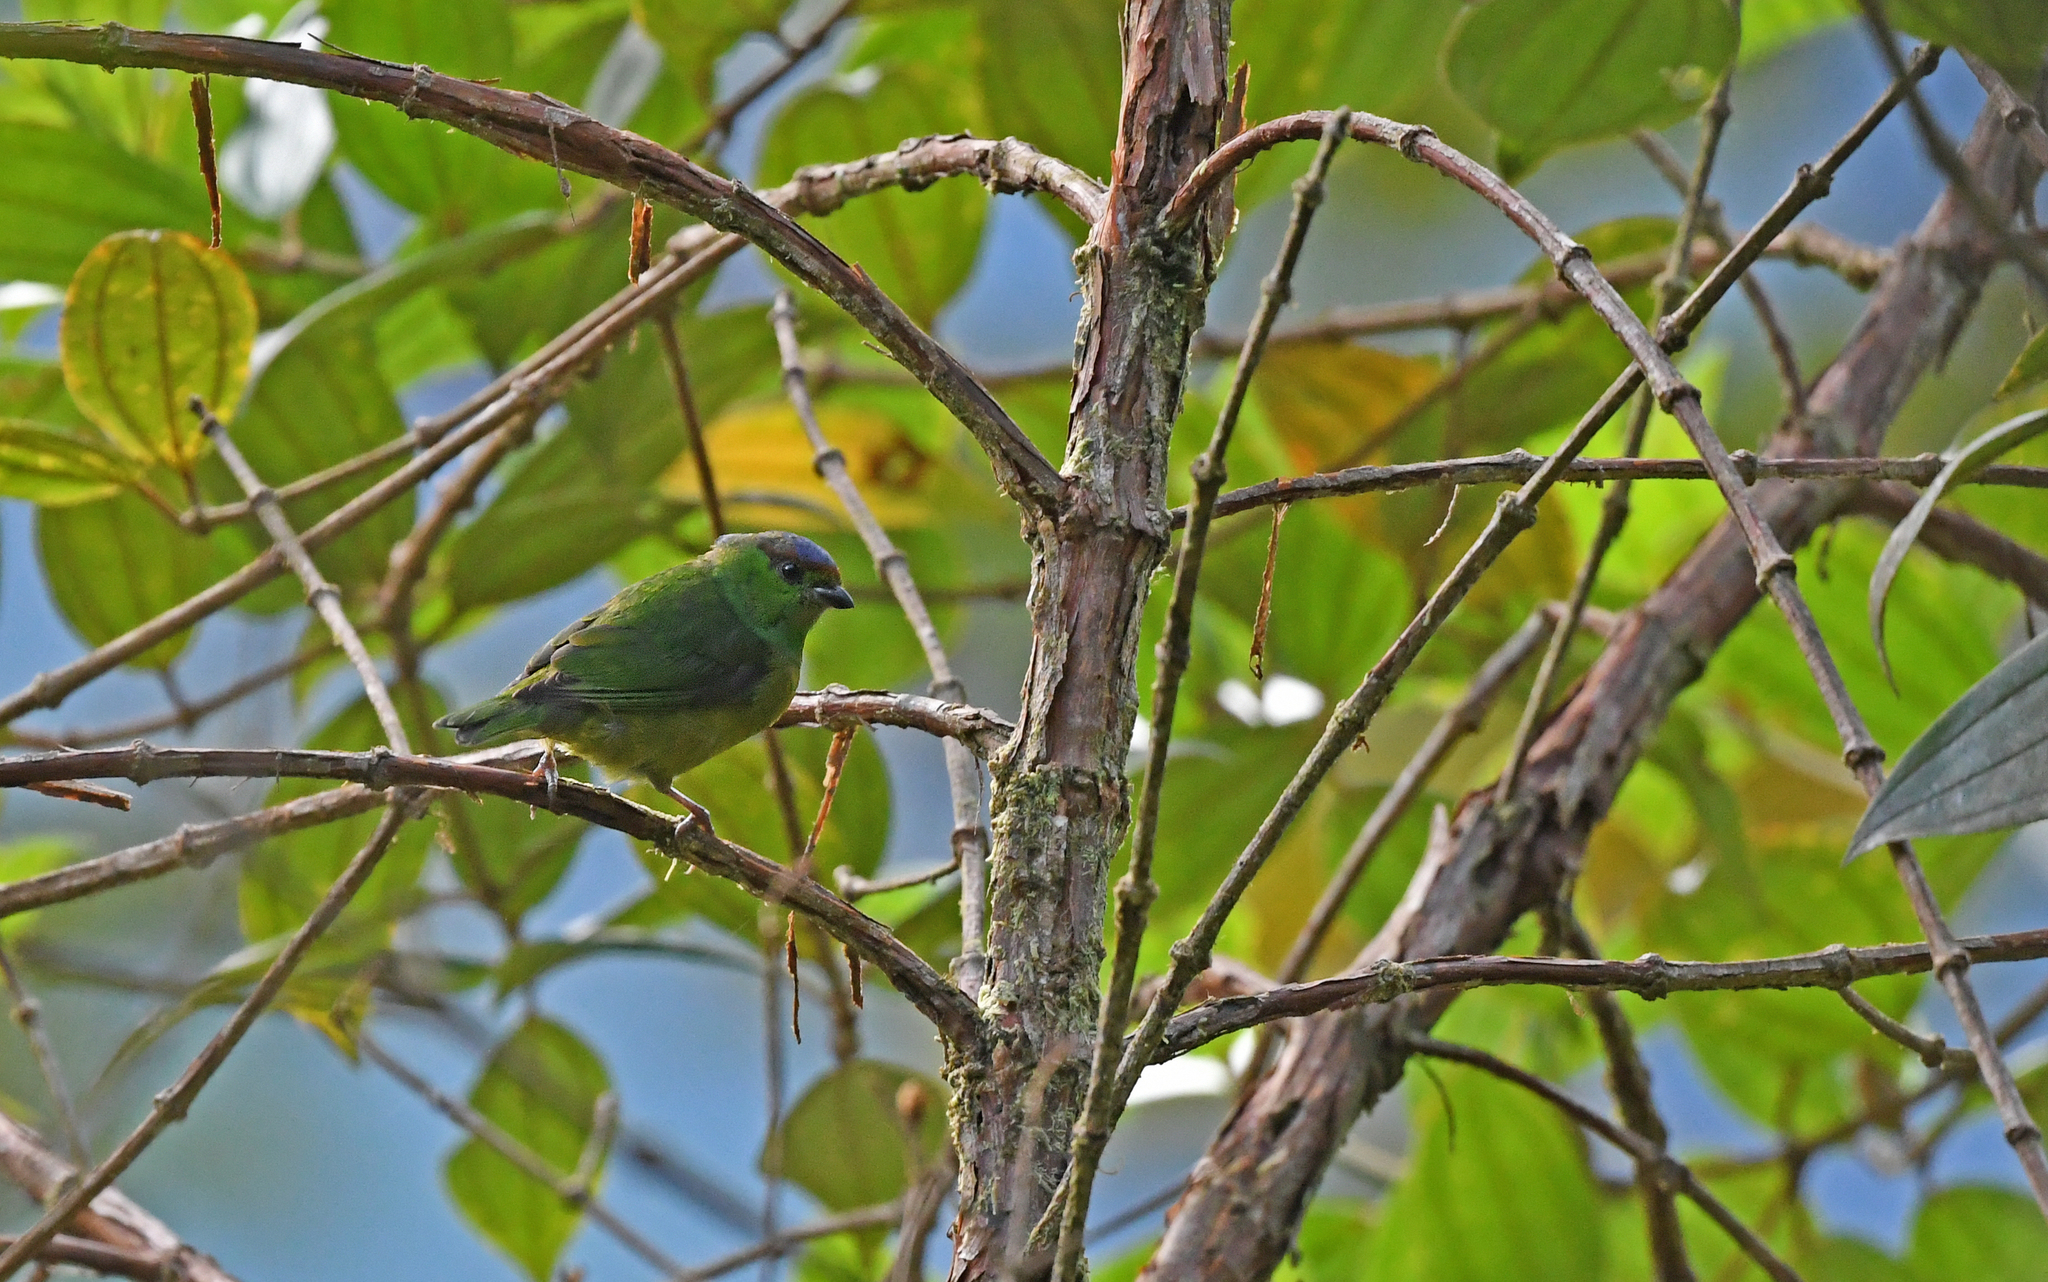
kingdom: Animalia
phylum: Chordata
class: Aves
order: Passeriformes
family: Fringillidae
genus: Chlorophonia
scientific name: Chlorophonia pyrrhophrys
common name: Chestnut-breasted chlorophonia
